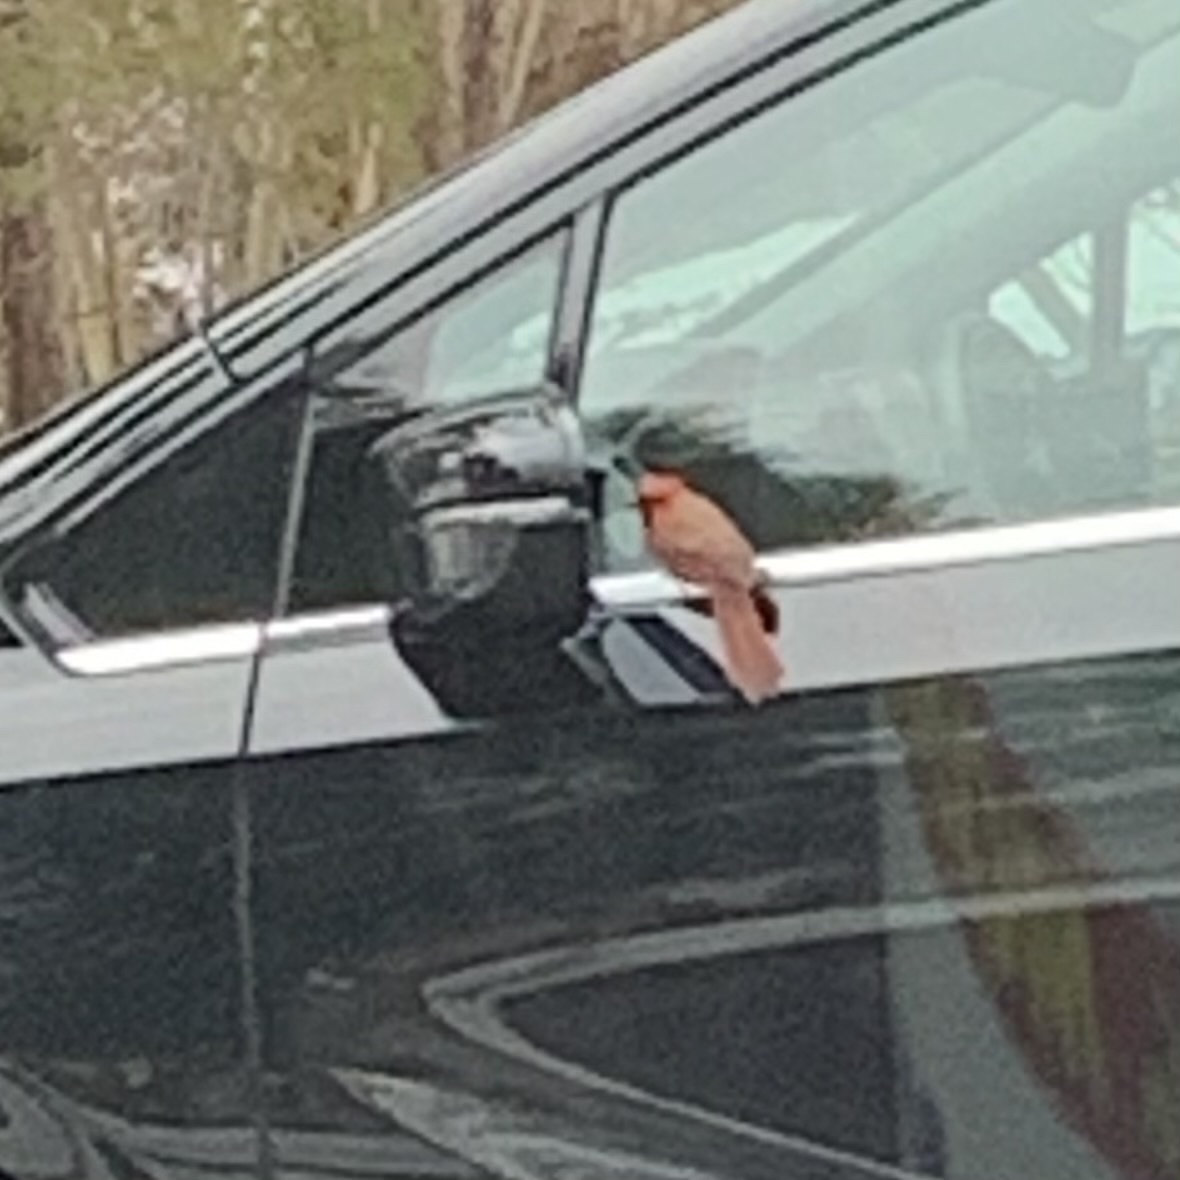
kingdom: Animalia
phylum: Chordata
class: Aves
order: Passeriformes
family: Cardinalidae
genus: Cardinalis
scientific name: Cardinalis cardinalis
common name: Northern cardinal
